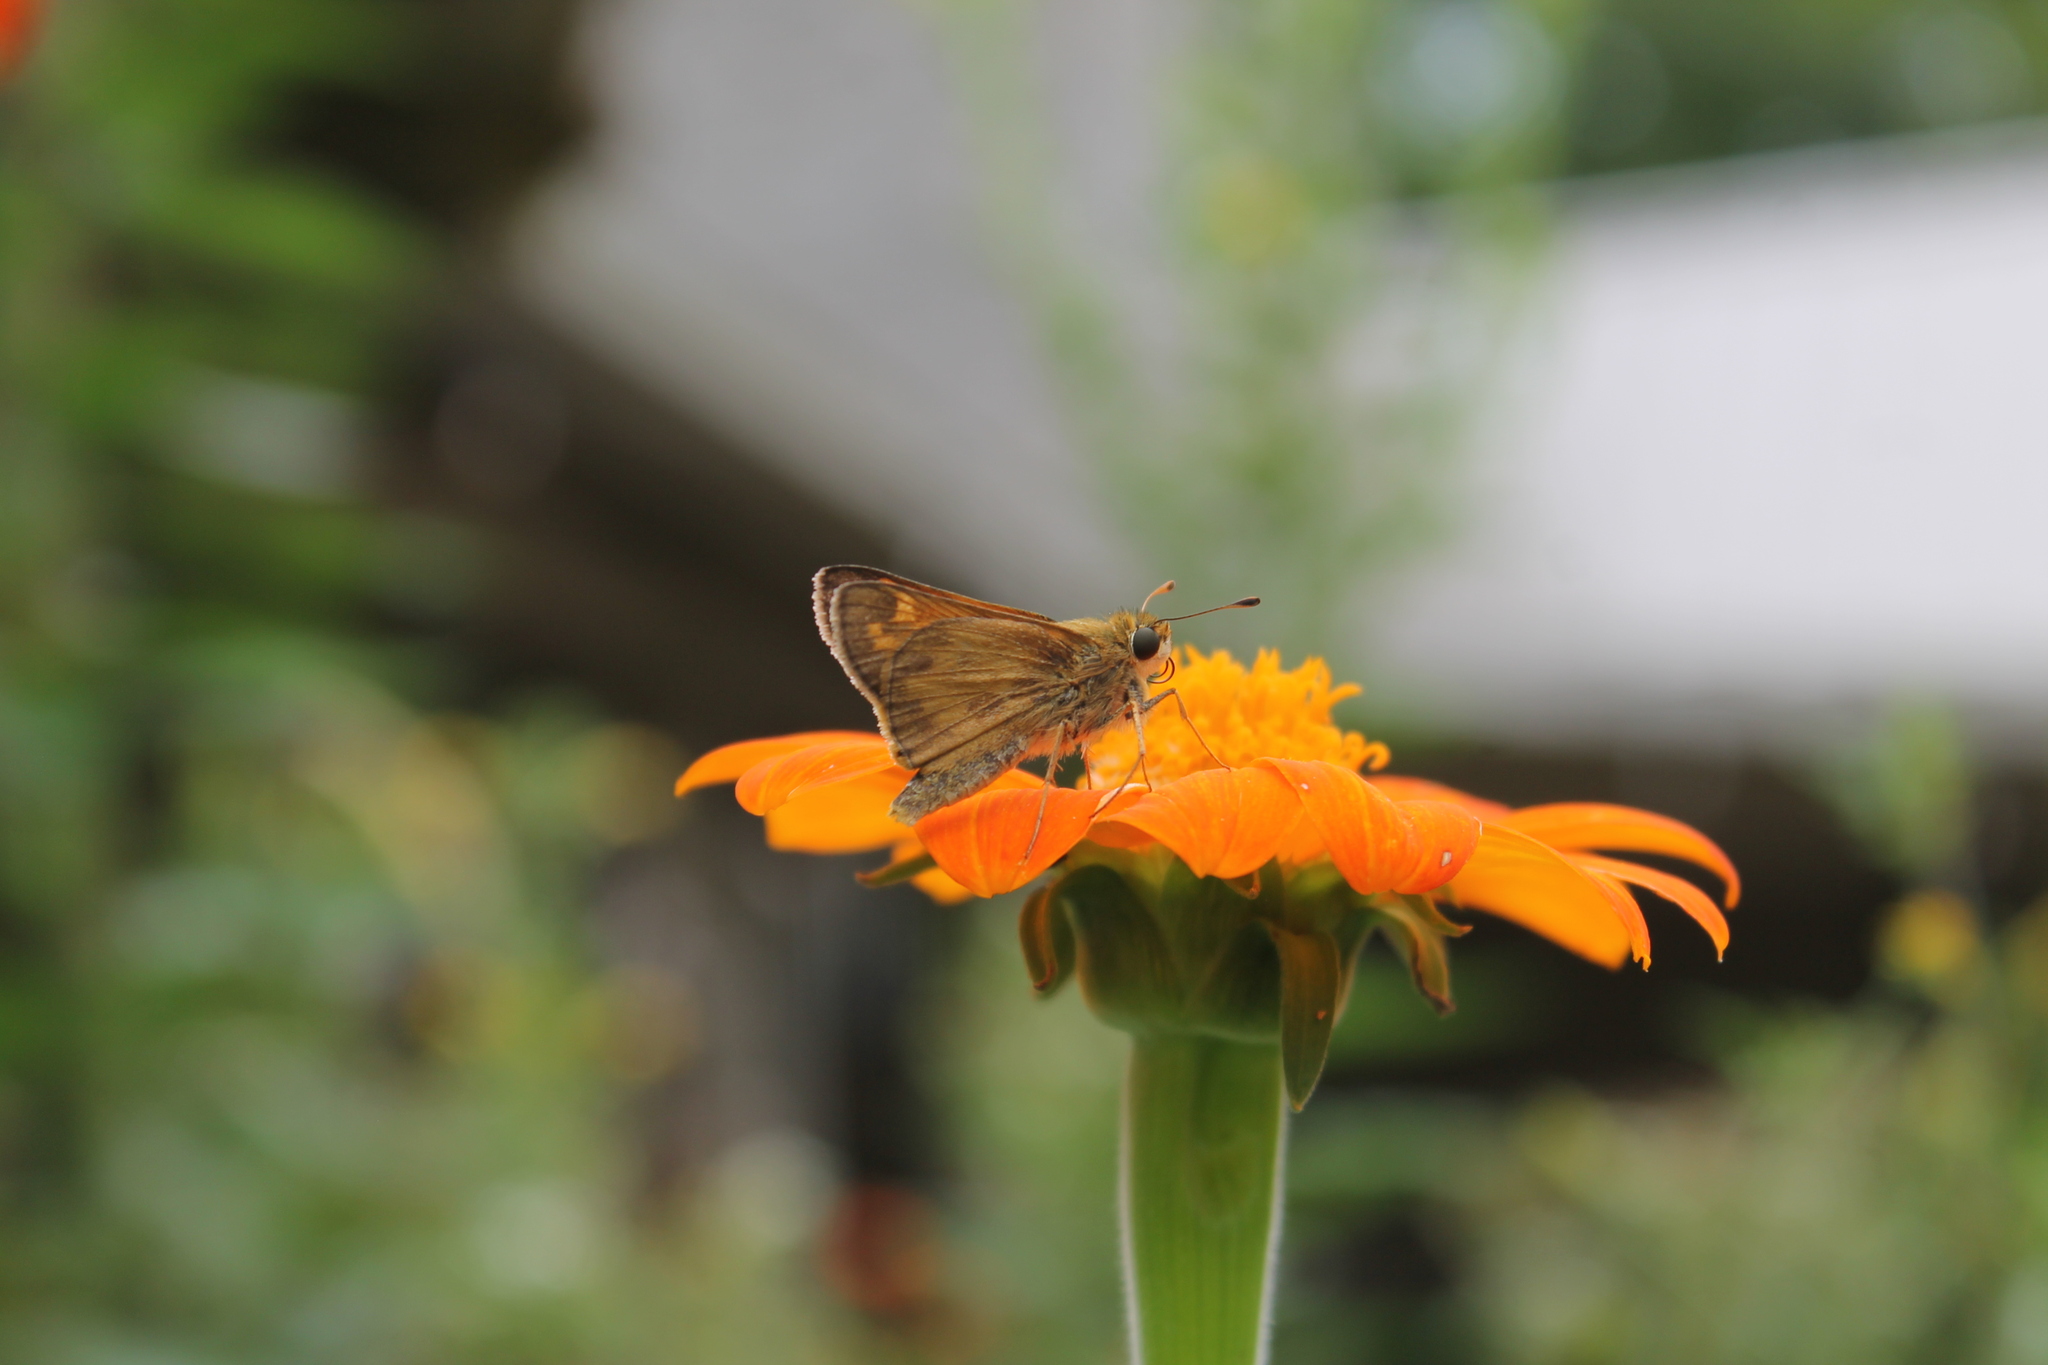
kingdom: Animalia
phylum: Arthropoda
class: Insecta
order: Lepidoptera
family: Hesperiidae
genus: Atalopedes
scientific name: Atalopedes
